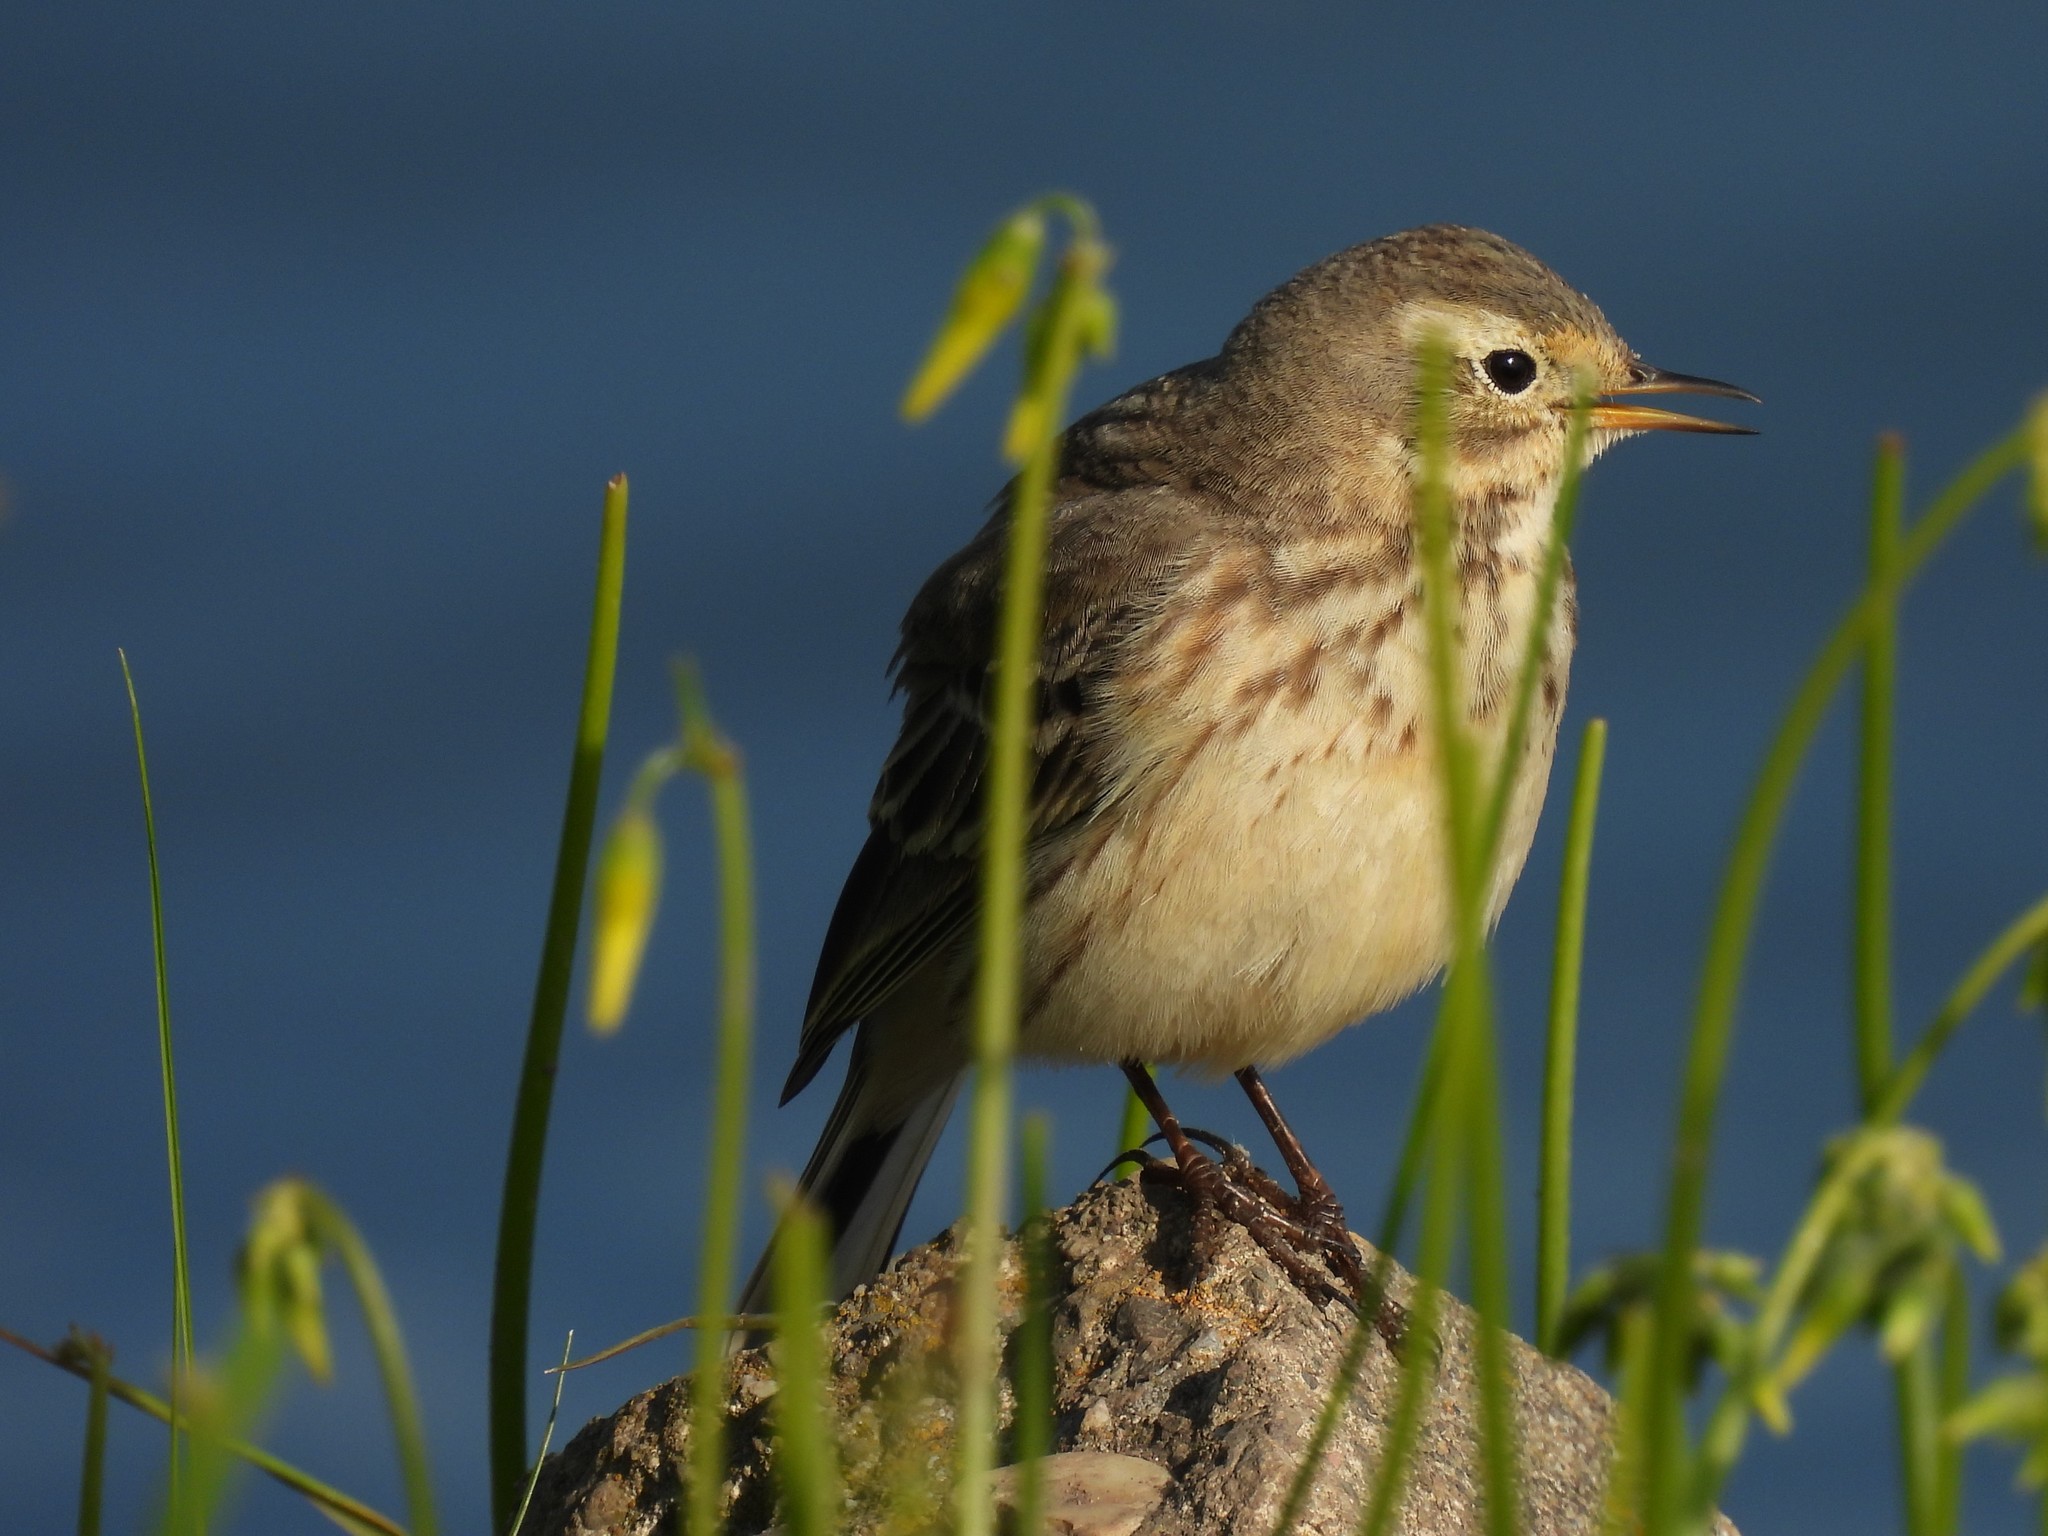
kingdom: Animalia
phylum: Chordata
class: Aves
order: Passeriformes
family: Motacillidae
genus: Anthus
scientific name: Anthus rubescens
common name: Buff-bellied pipit
